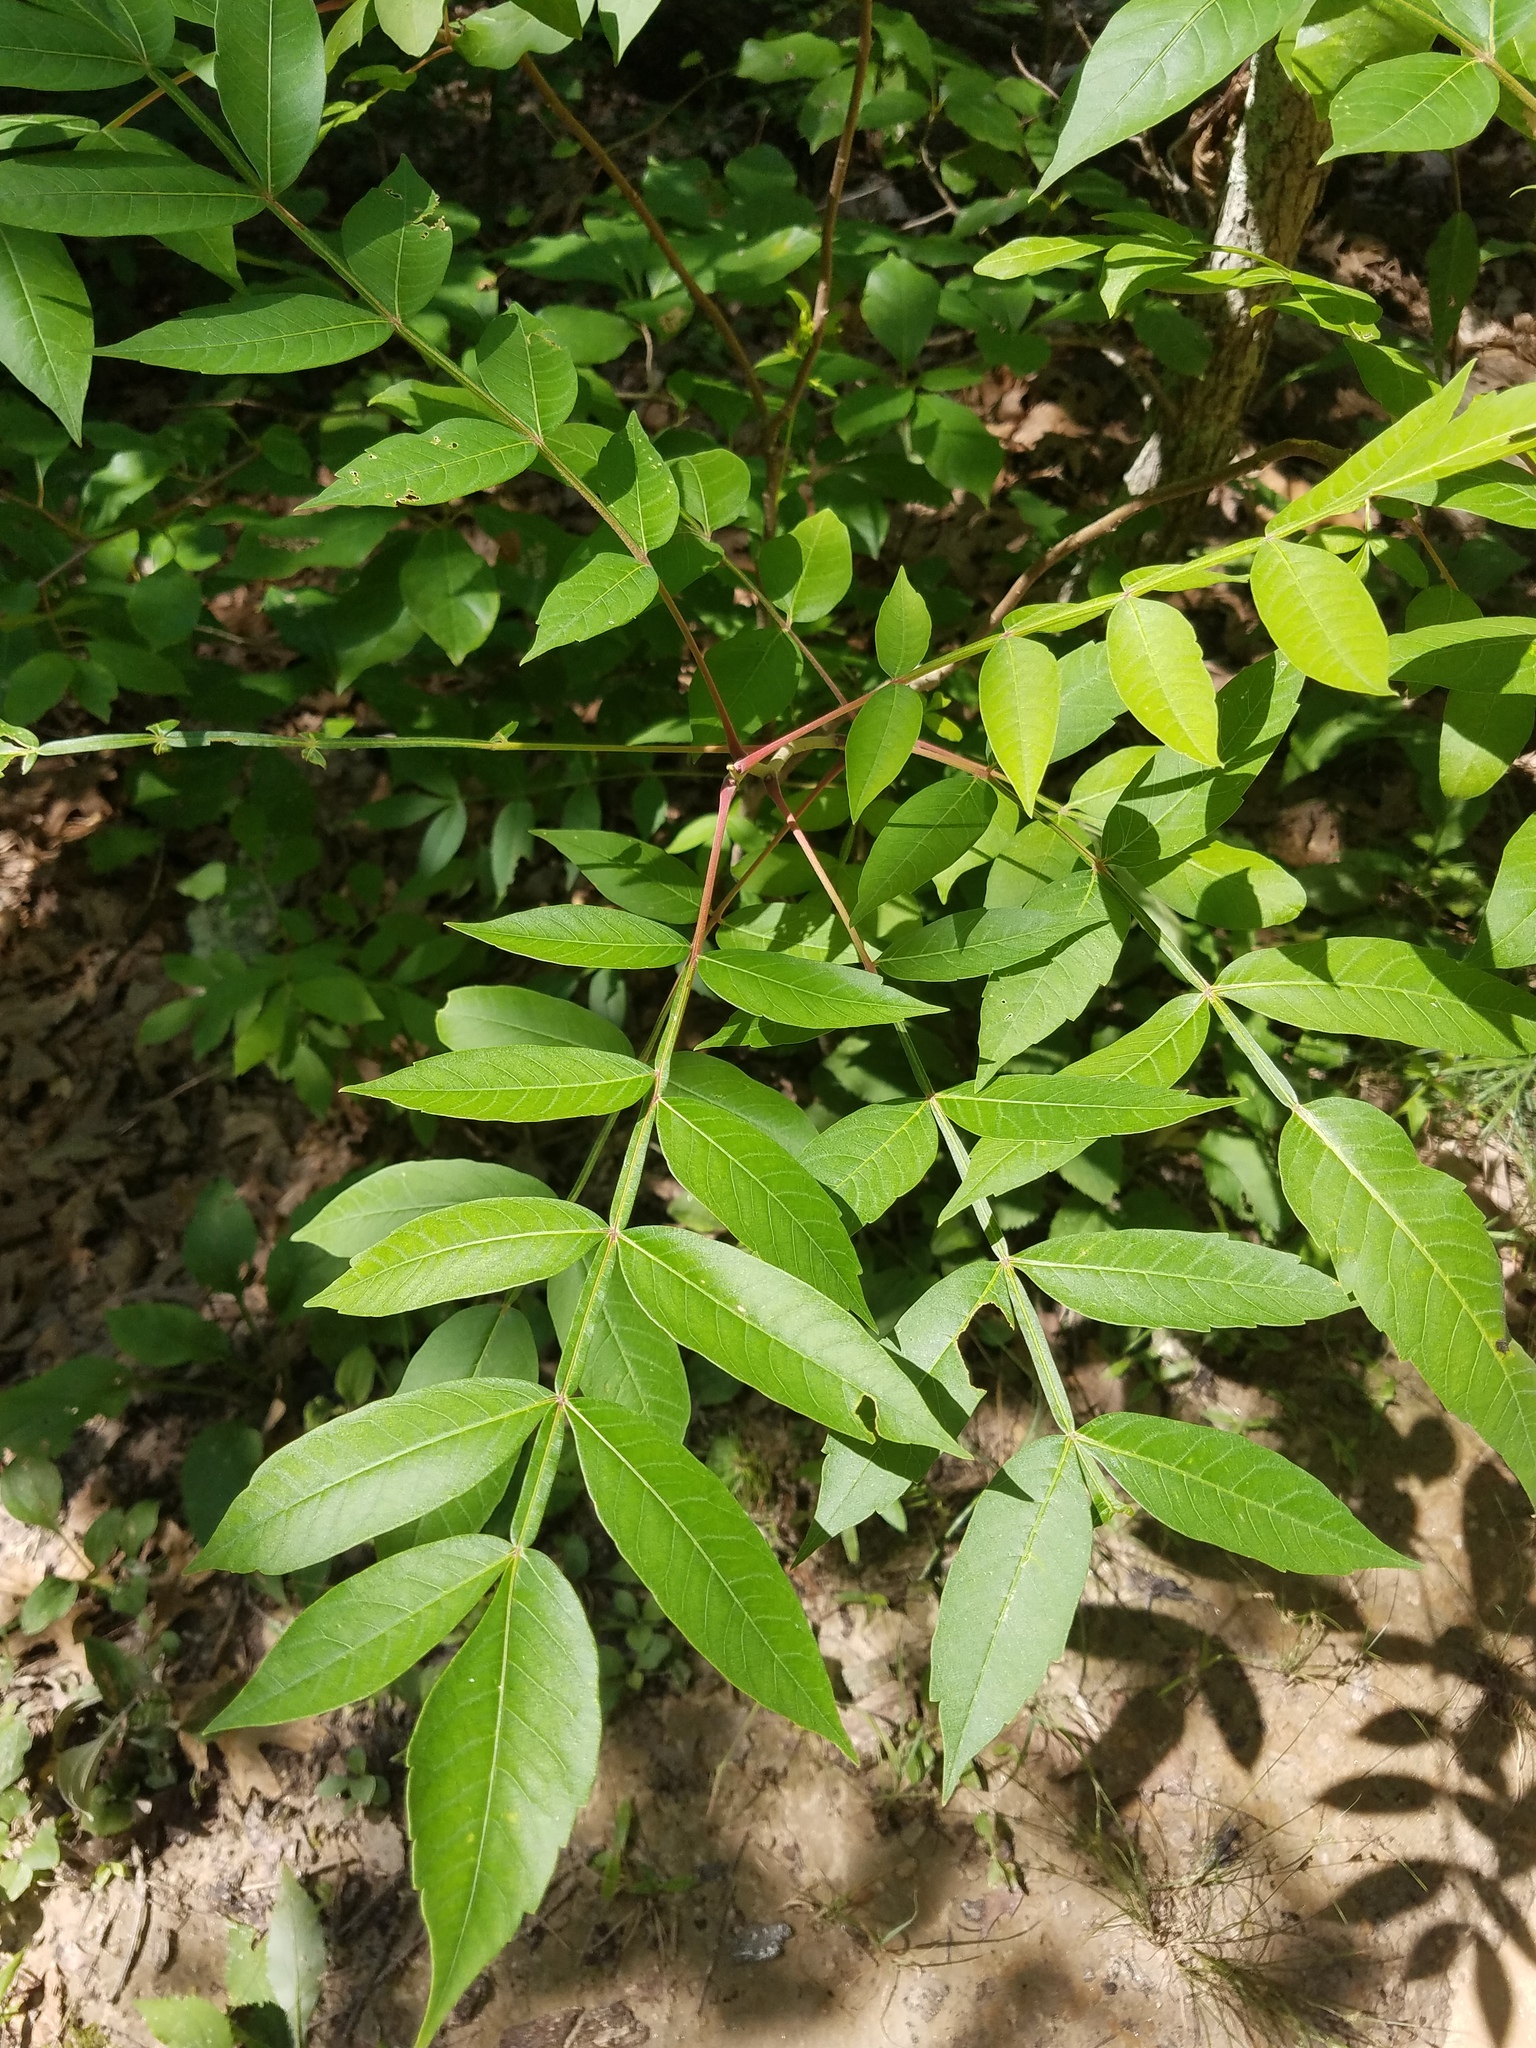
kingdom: Plantae
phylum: Tracheophyta
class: Magnoliopsida
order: Sapindales
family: Anacardiaceae
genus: Rhus
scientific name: Rhus copallina
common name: Shining sumac
